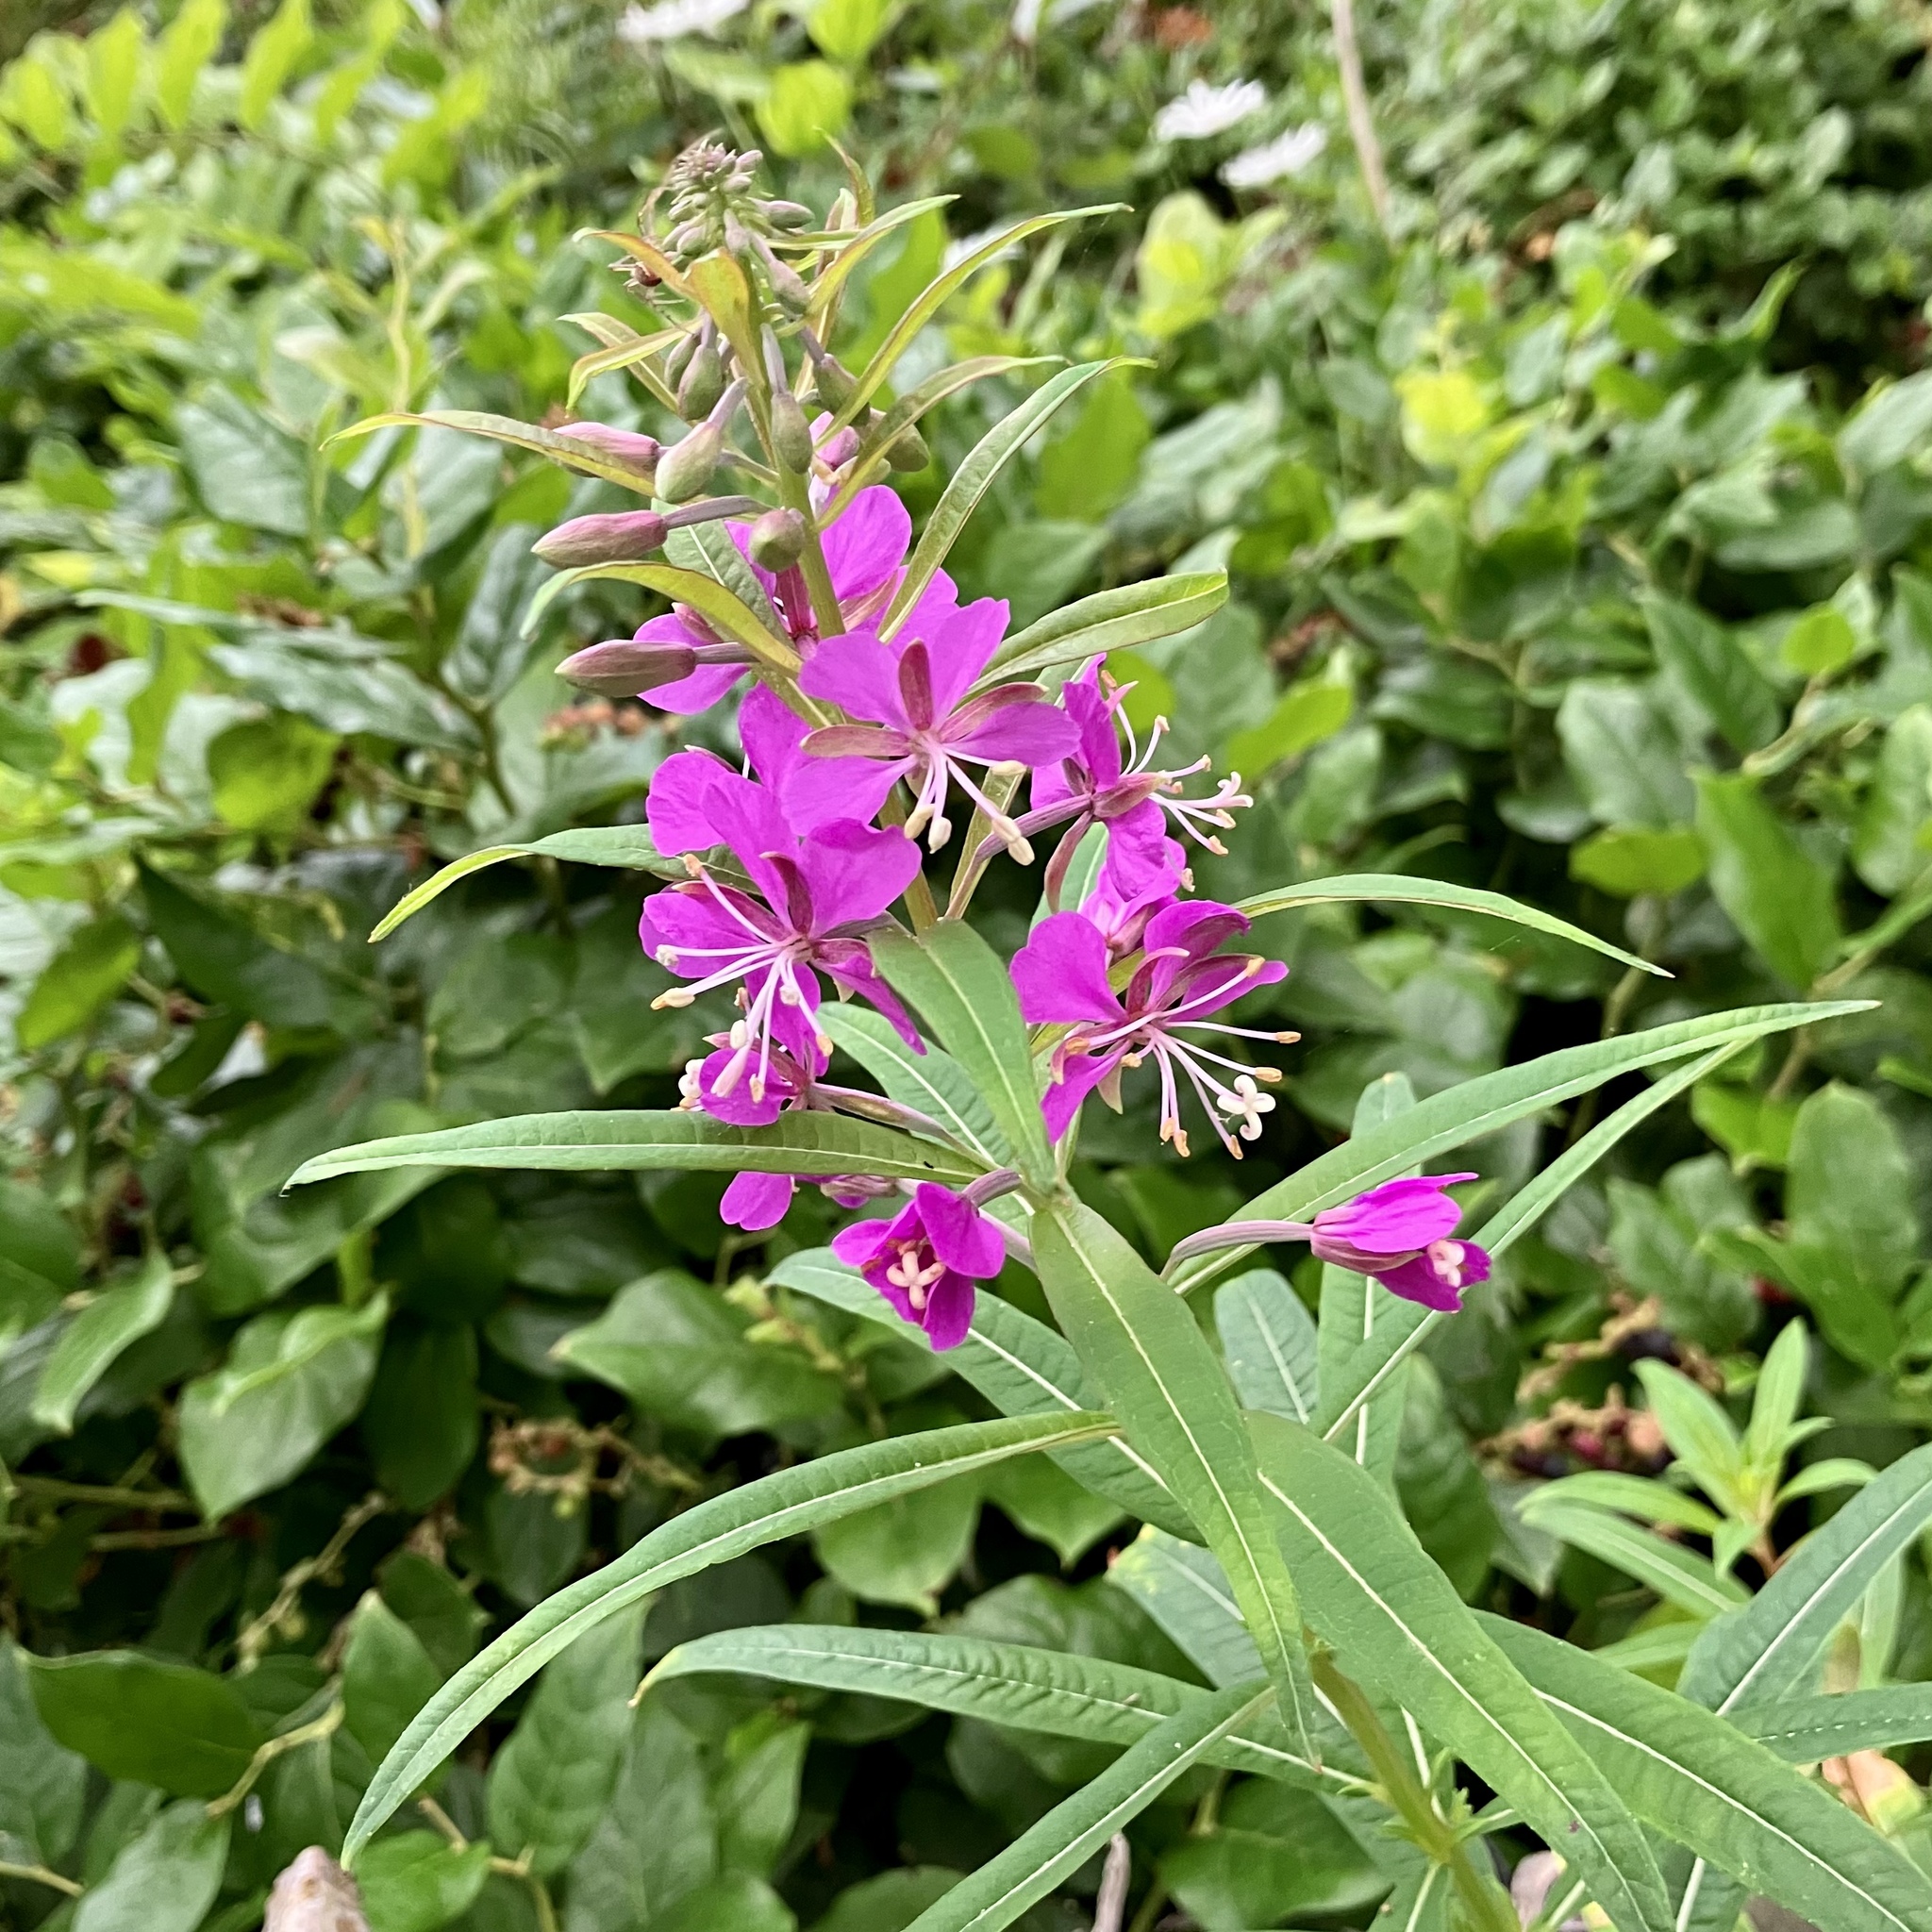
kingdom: Plantae
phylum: Tracheophyta
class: Magnoliopsida
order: Myrtales
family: Onagraceae
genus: Chamaenerion
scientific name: Chamaenerion angustifolium
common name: Fireweed
